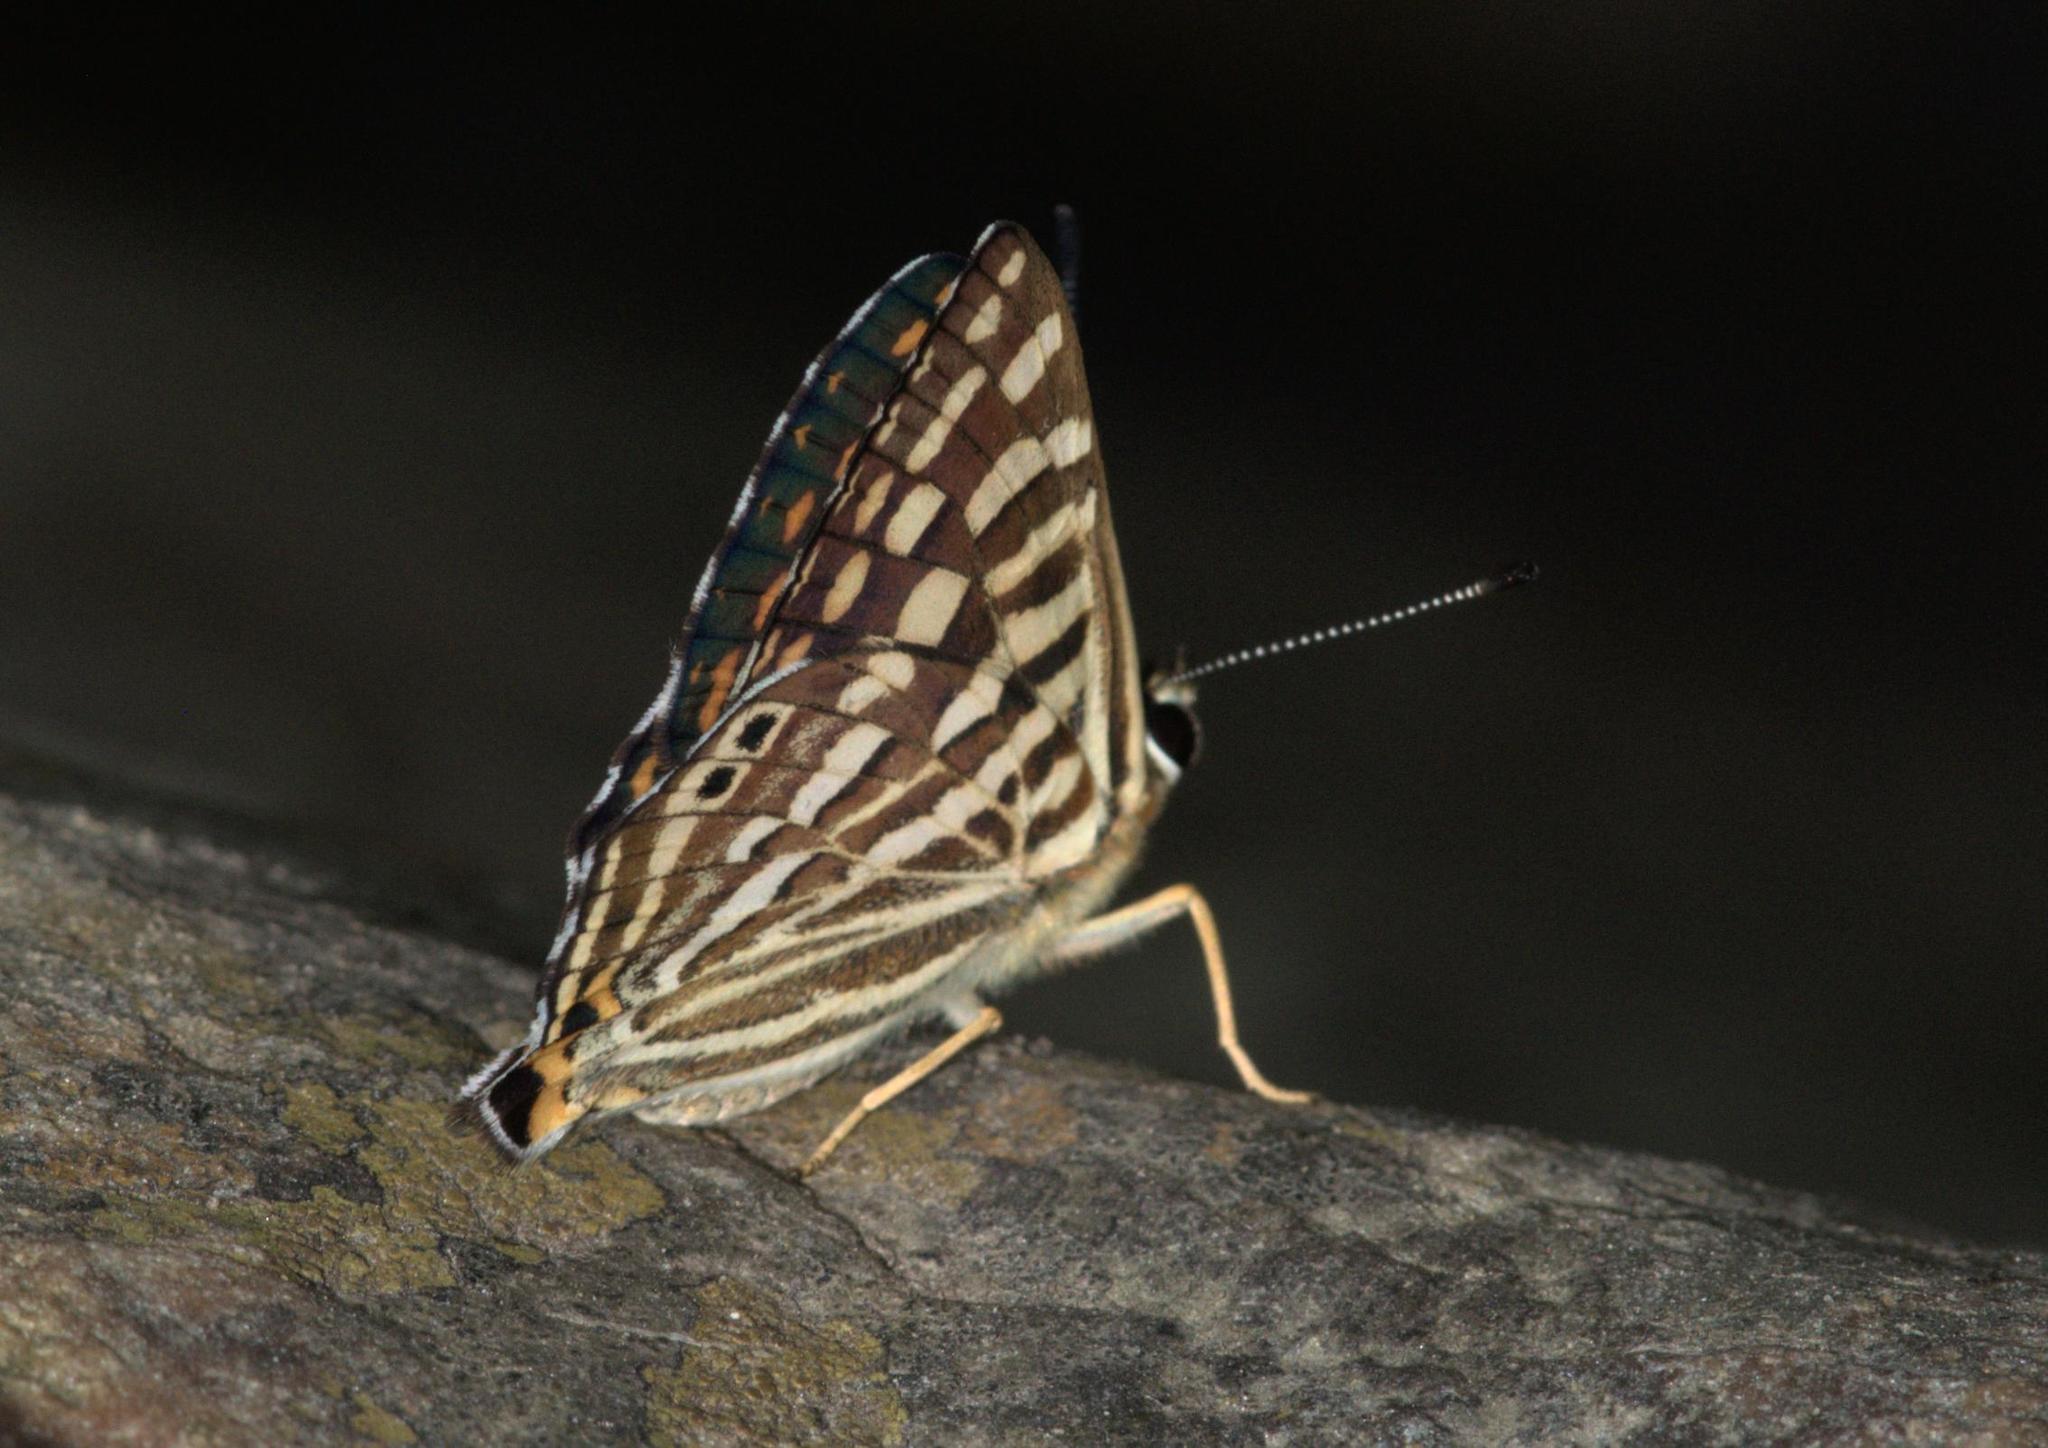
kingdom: Animalia
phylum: Arthropoda
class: Insecta
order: Lepidoptera
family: Lycaenidae
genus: Dodona
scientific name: Dodona durga
